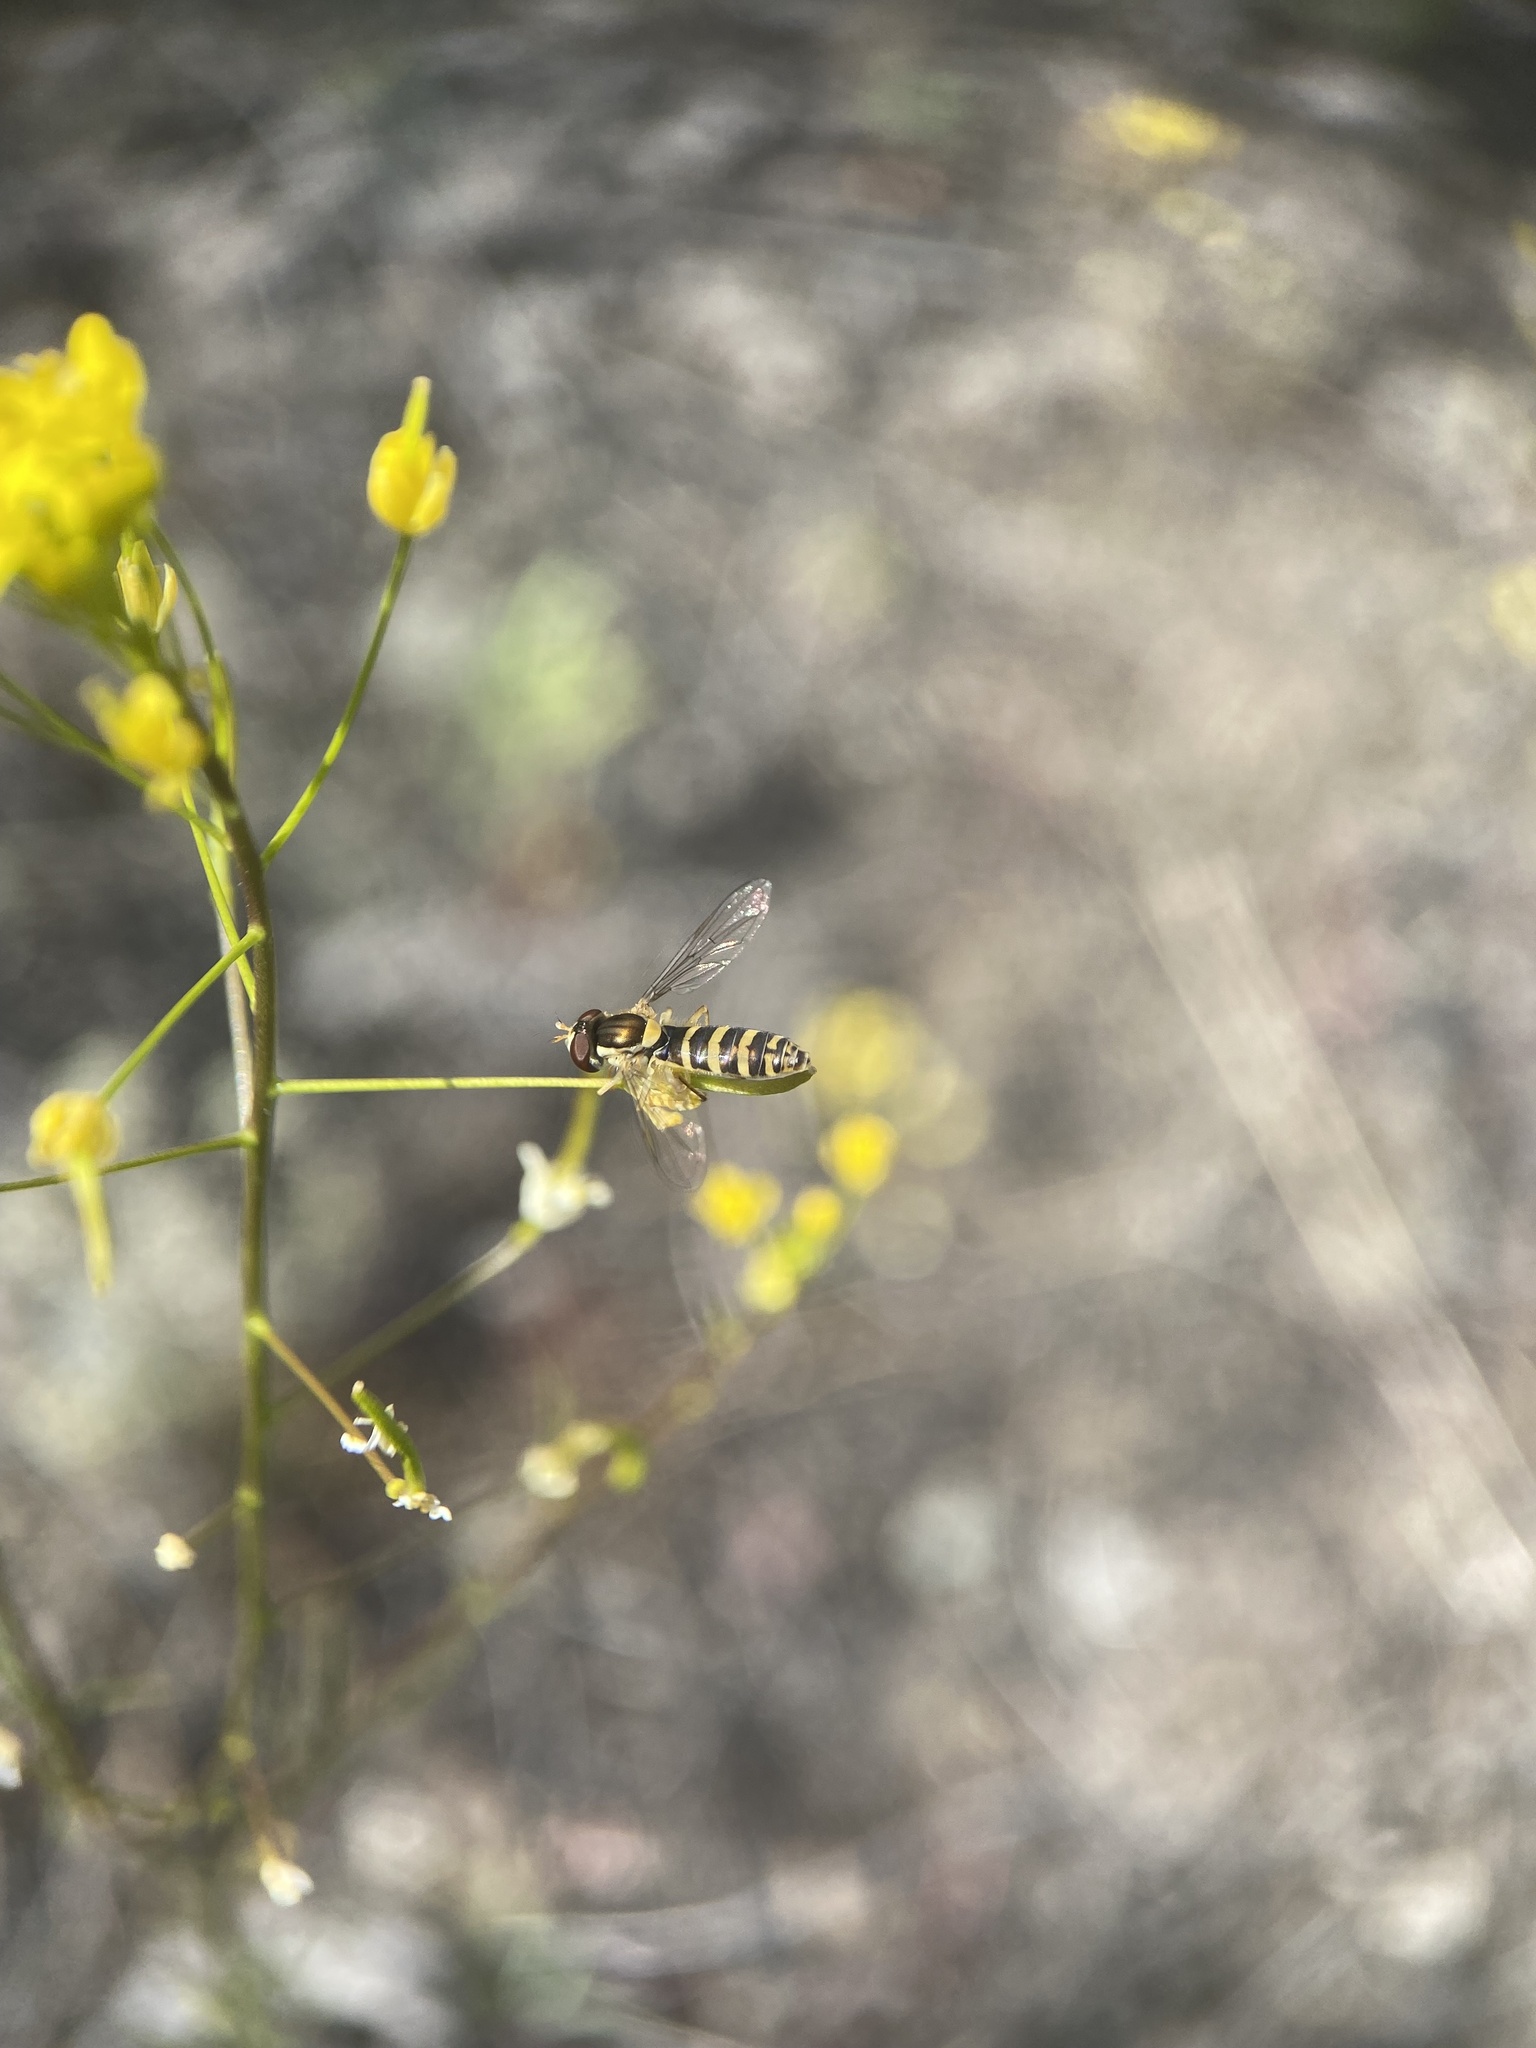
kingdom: Animalia
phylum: Arthropoda
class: Insecta
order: Diptera
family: Syrphidae
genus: Sphaerophoria
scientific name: Sphaerophoria
